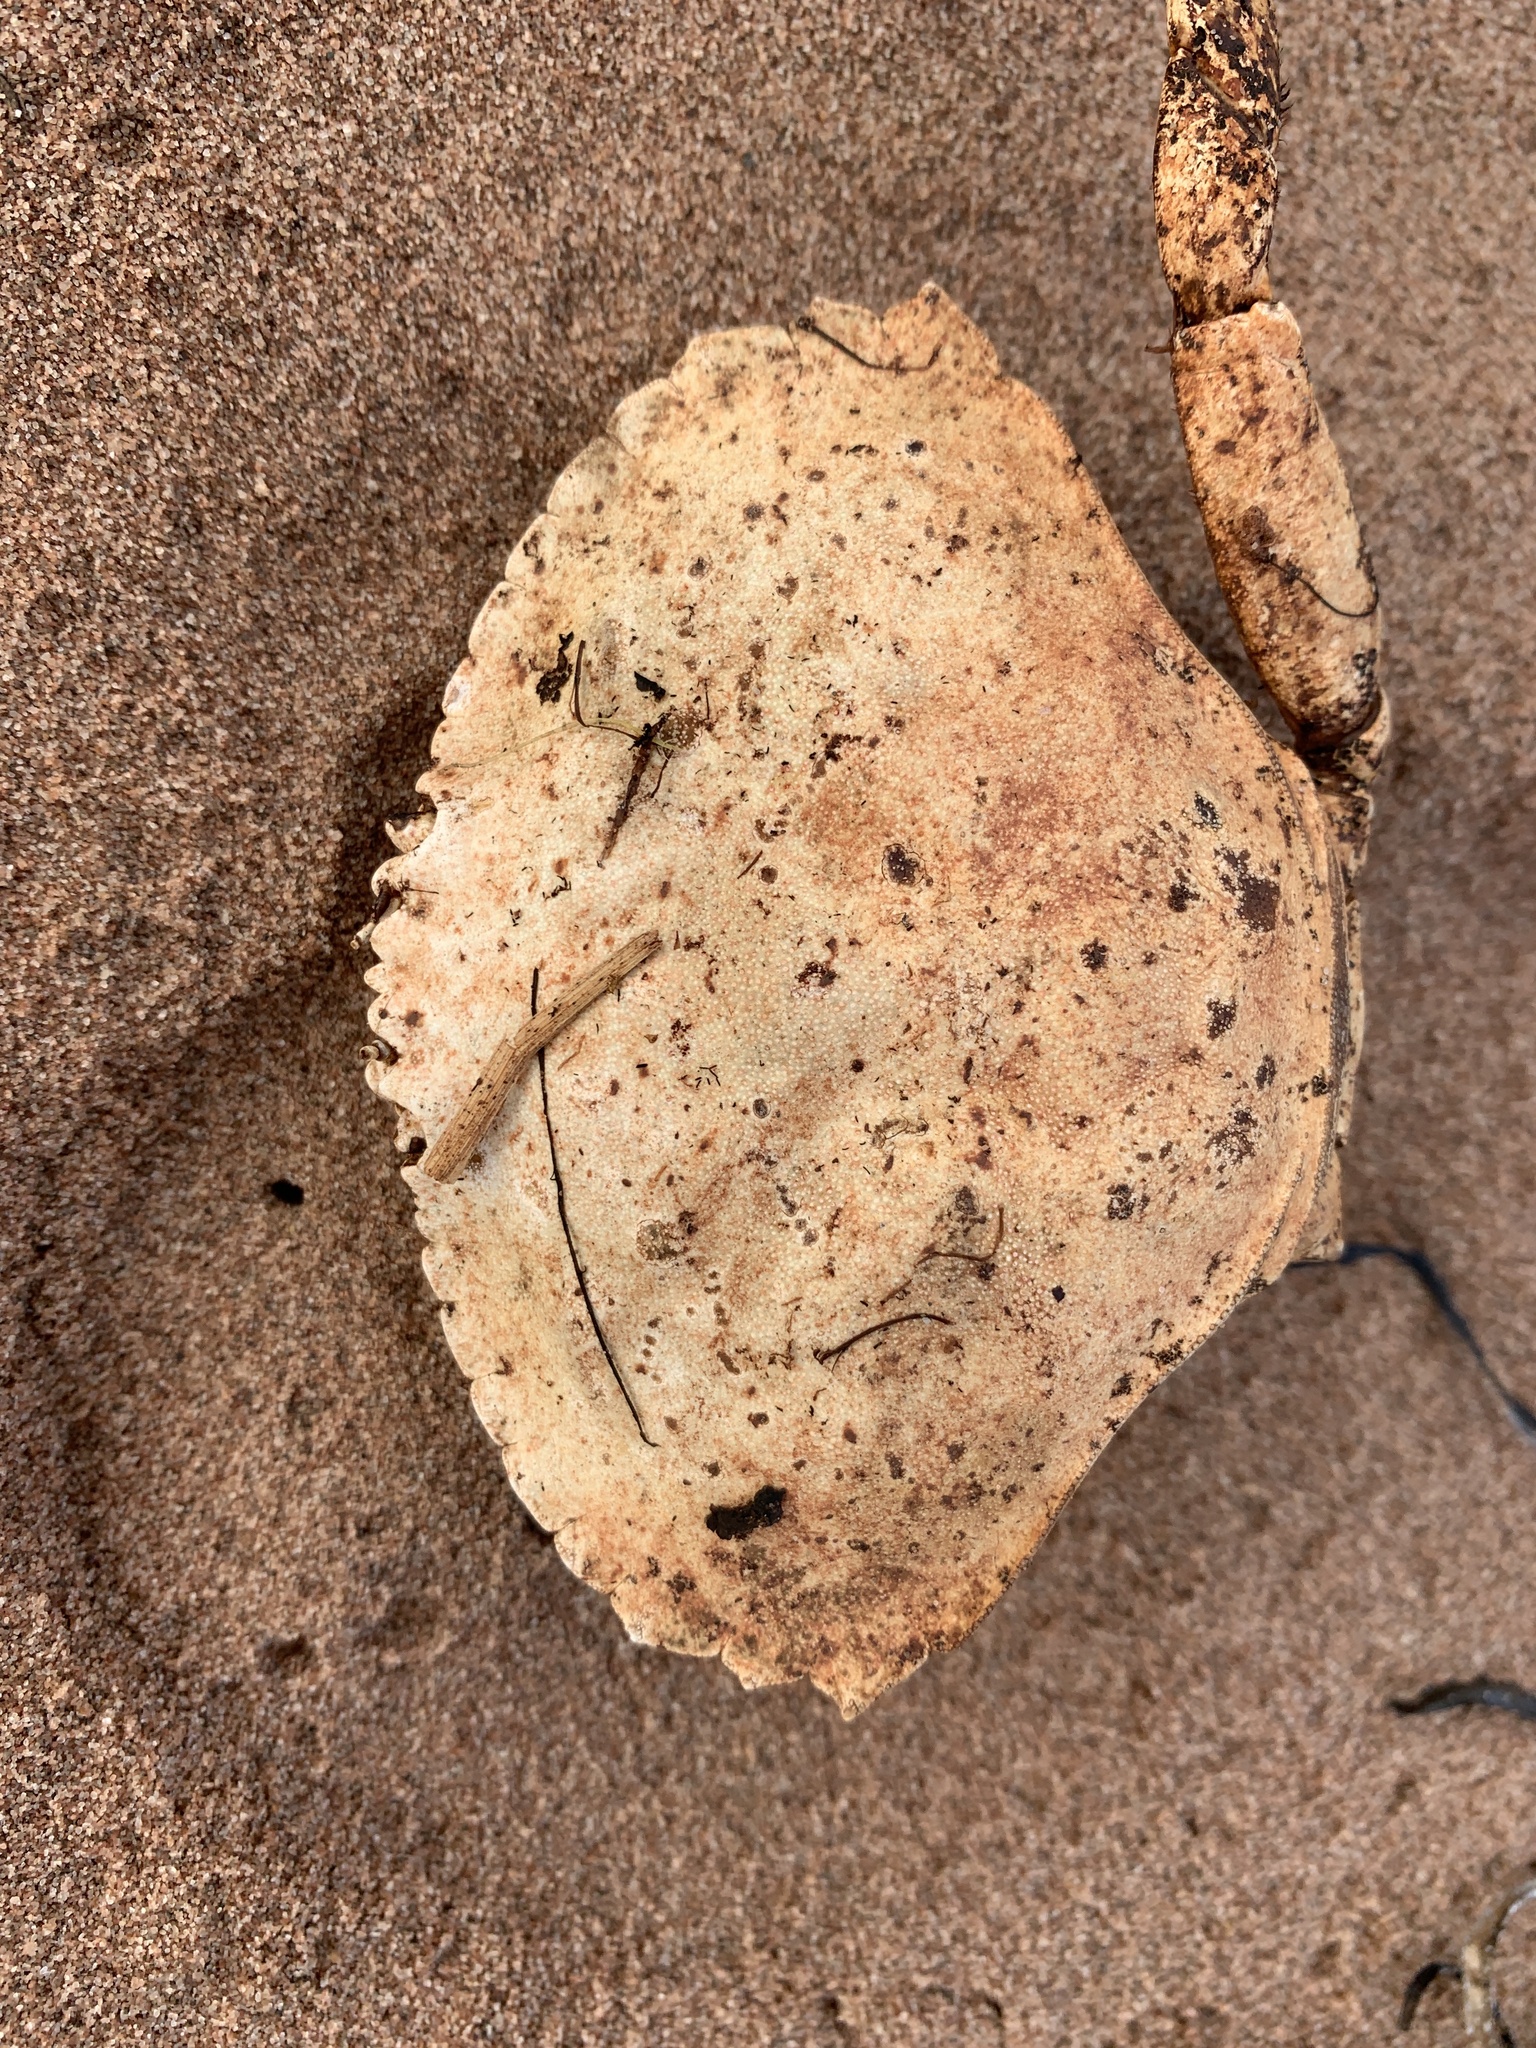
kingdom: Animalia
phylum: Arthropoda
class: Malacostraca
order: Decapoda
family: Cancridae
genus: Cancer
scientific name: Cancer irroratus
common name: Atlantic rock crab
